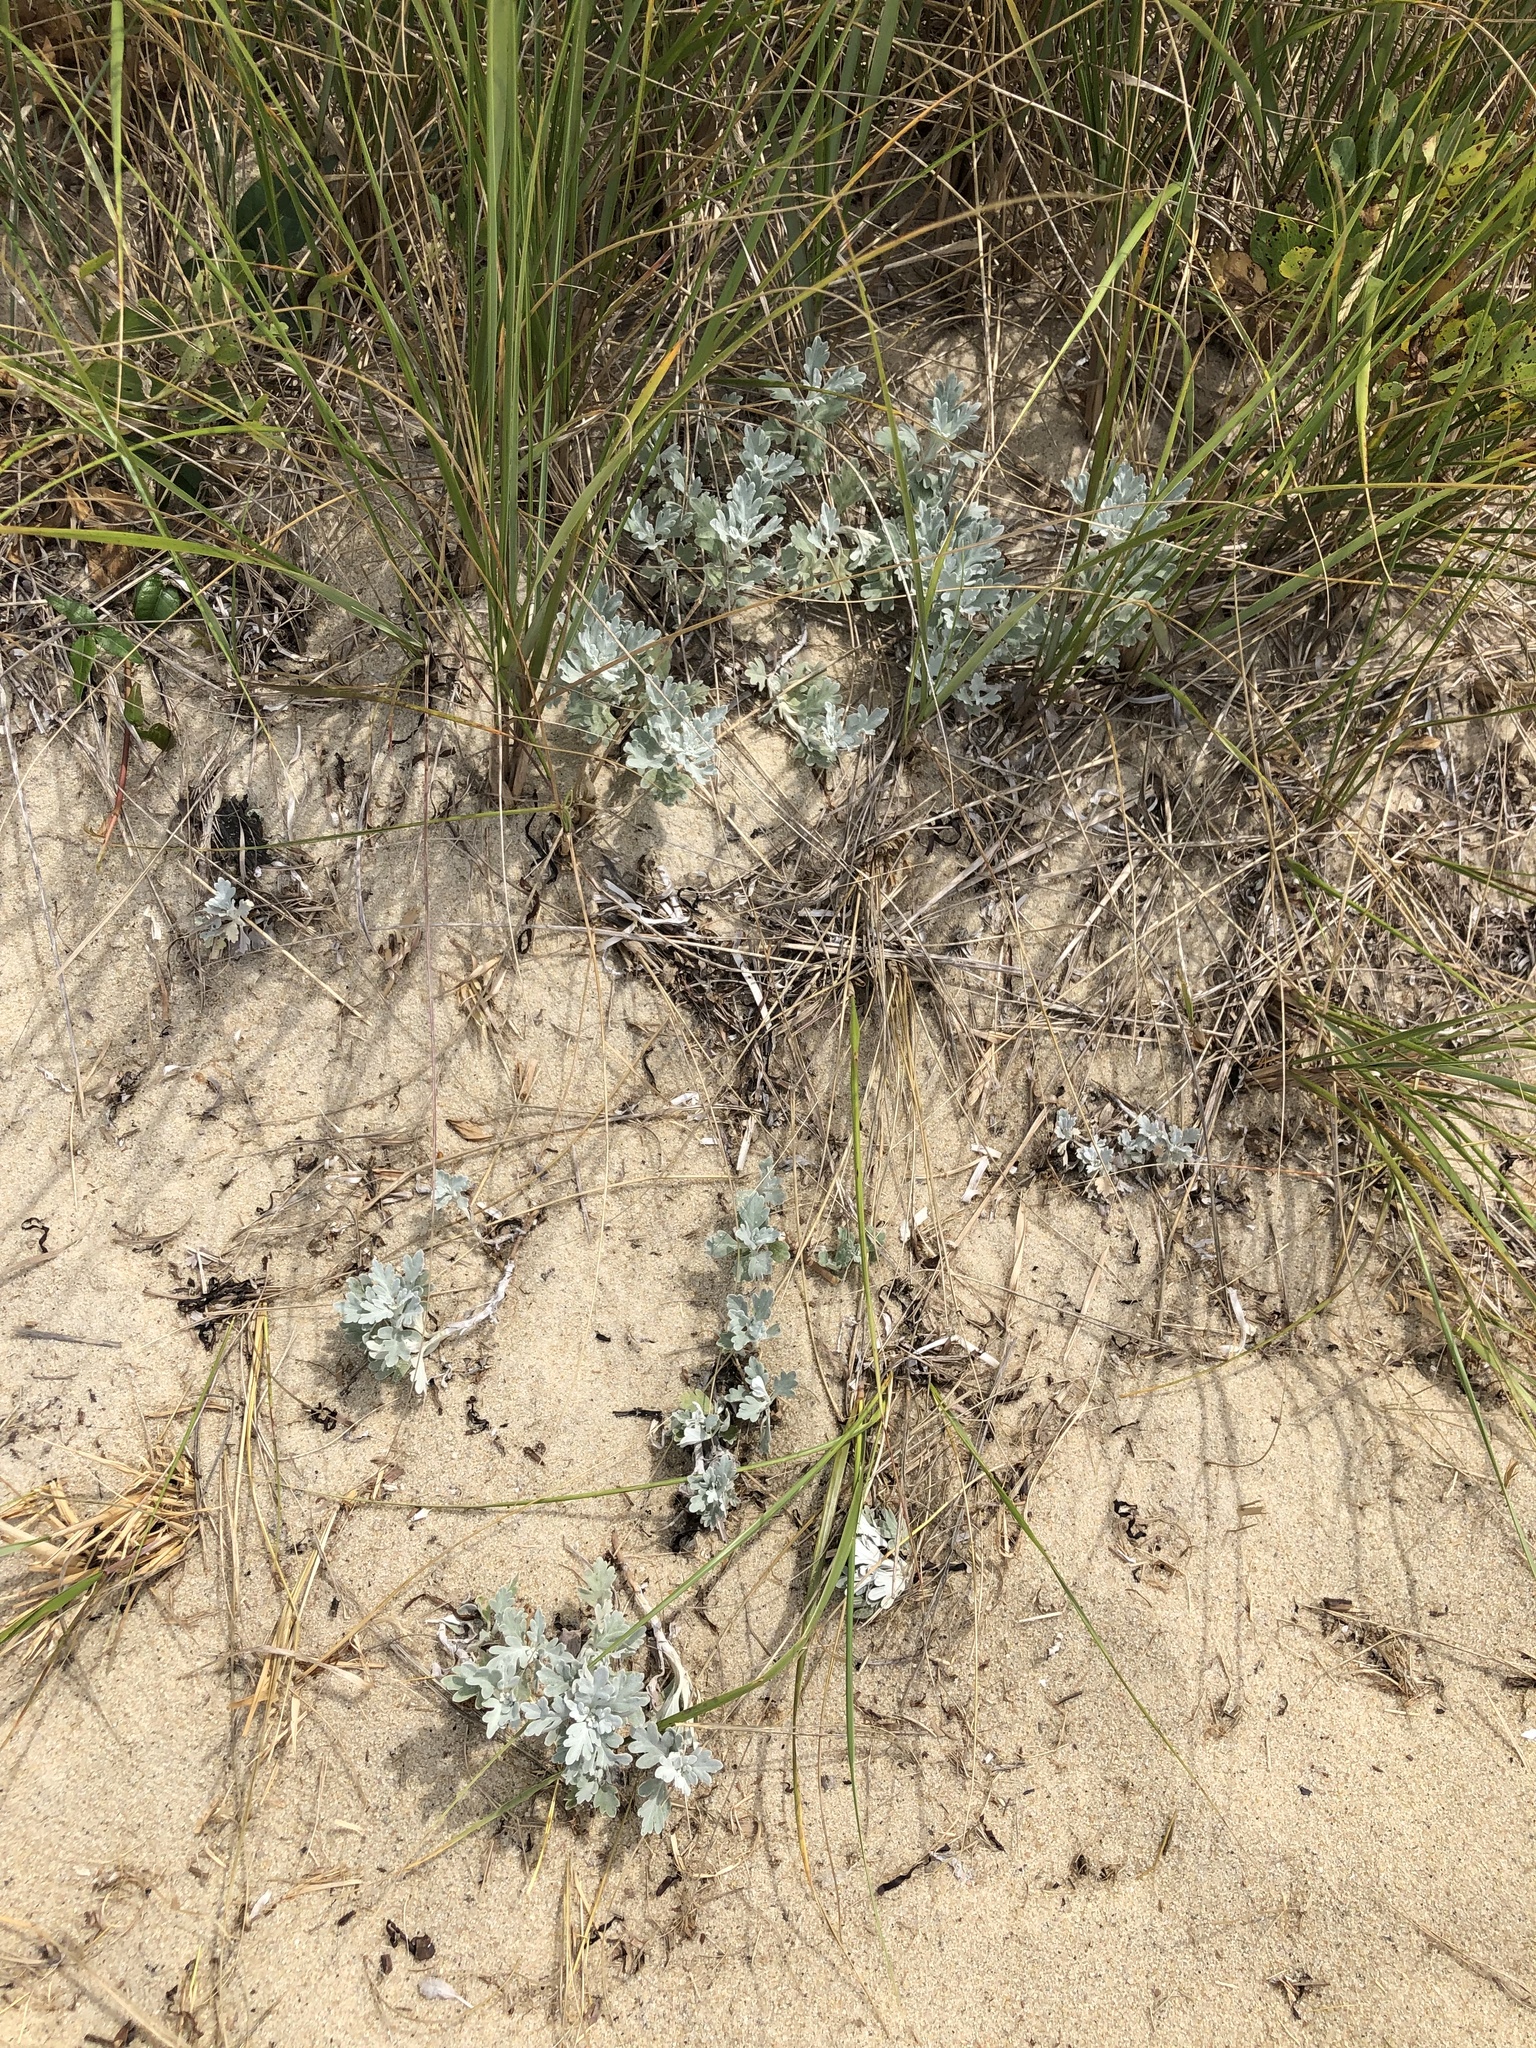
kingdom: Plantae
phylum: Tracheophyta
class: Magnoliopsida
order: Asterales
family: Asteraceae
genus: Artemisia
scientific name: Artemisia stelleriana
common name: Beach wormwood
